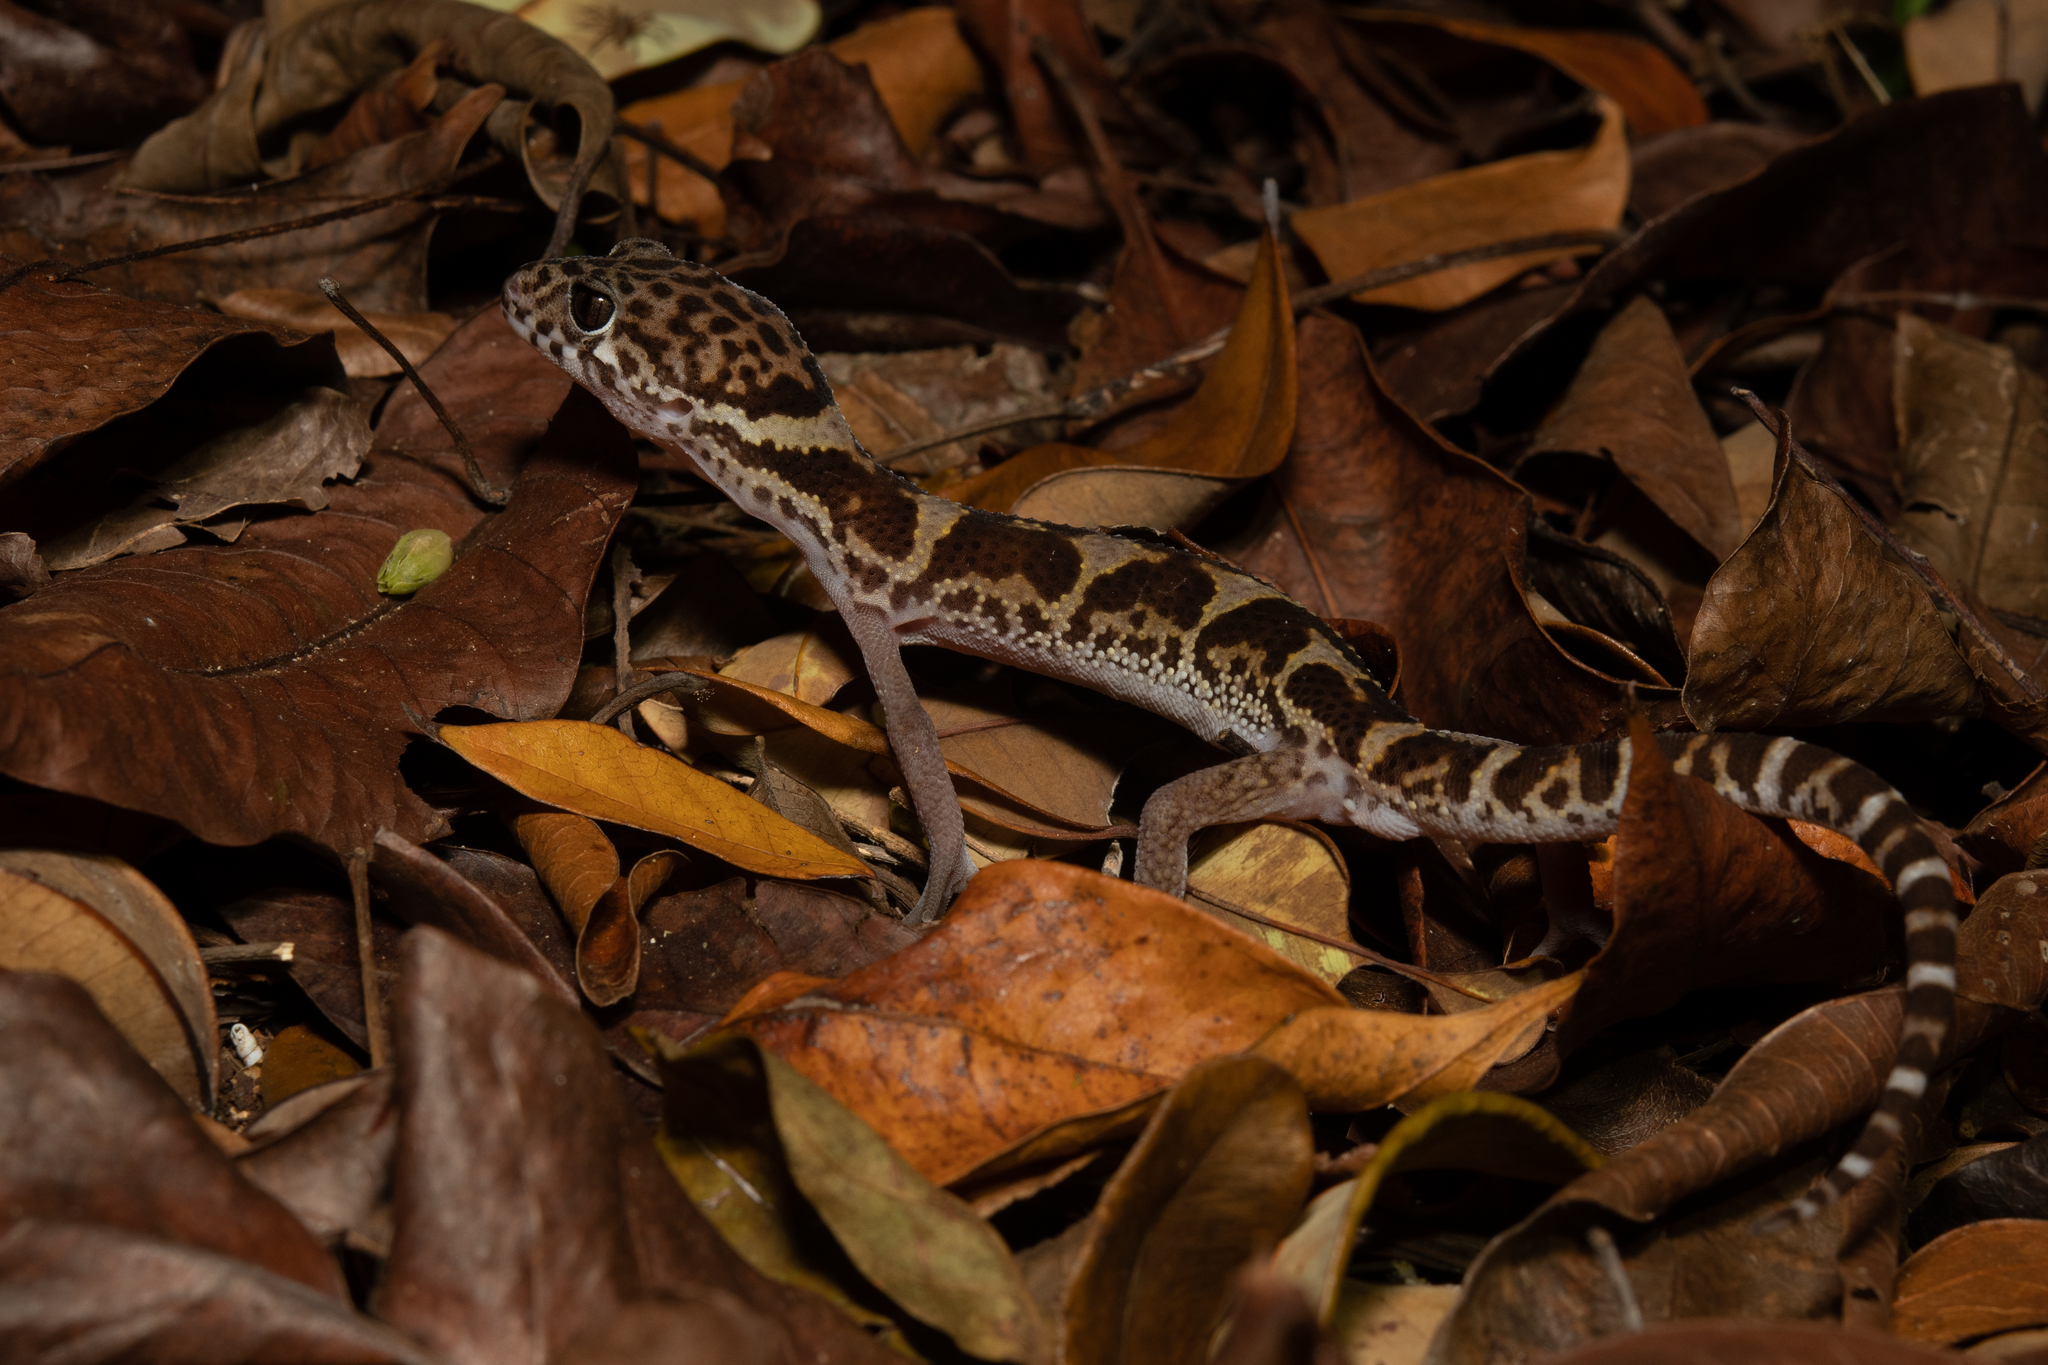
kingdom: Animalia
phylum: Chordata
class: Squamata
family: Eublepharidae
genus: Coleonyx
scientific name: Coleonyx mitratus
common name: Central american banded gecko
